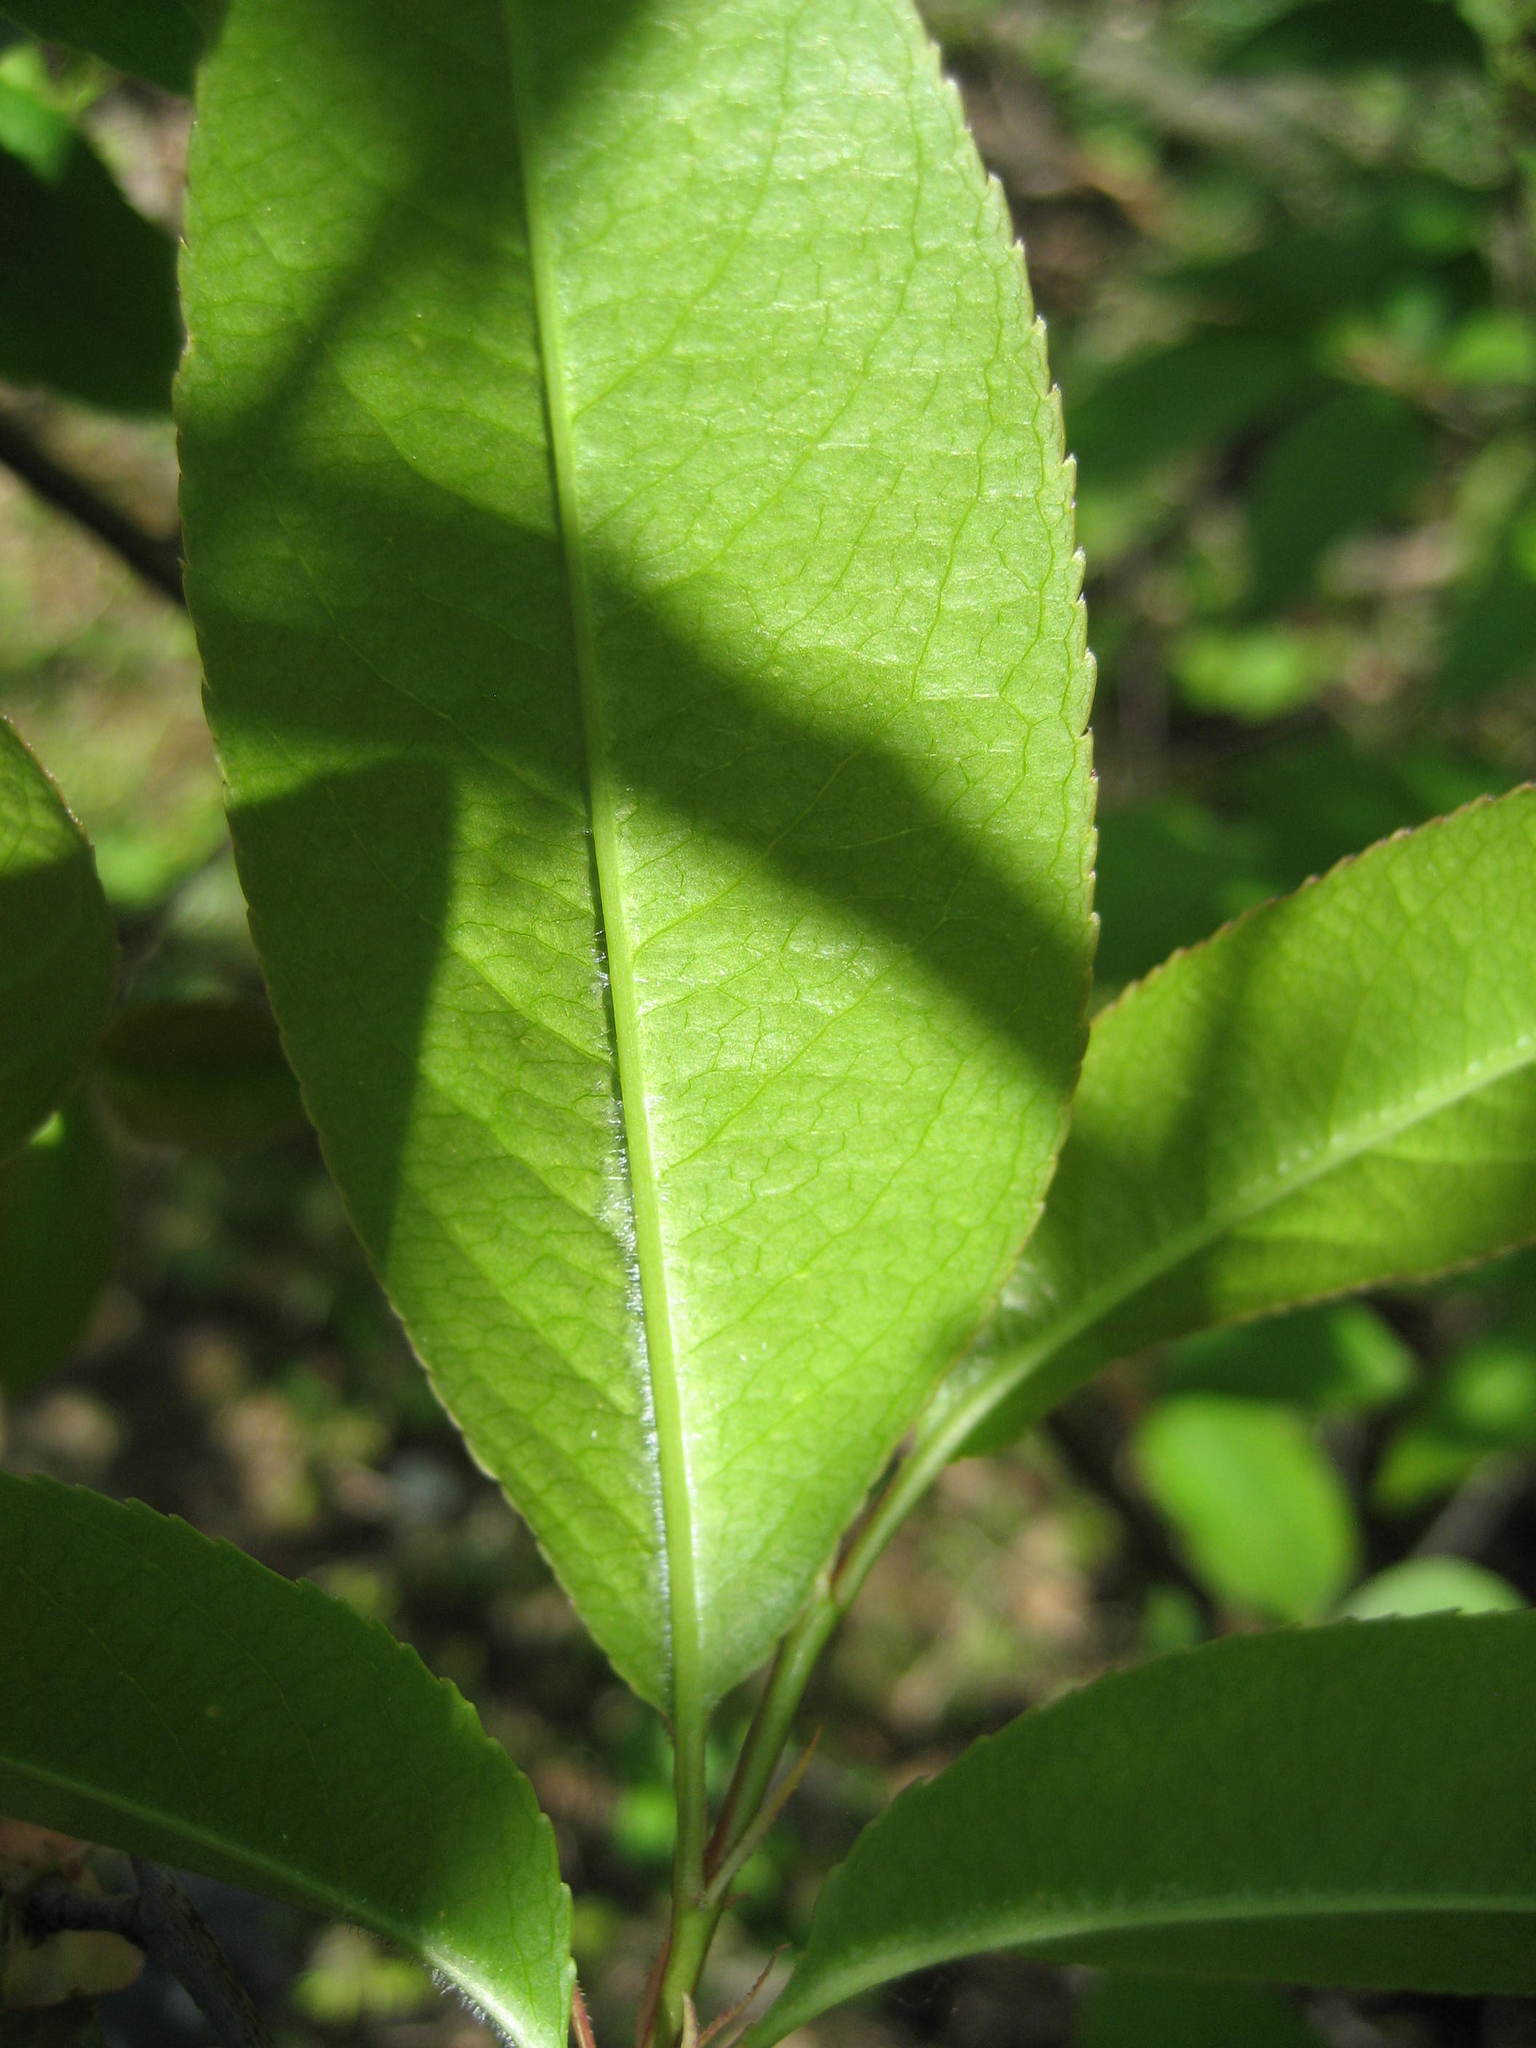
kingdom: Plantae
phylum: Tracheophyta
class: Magnoliopsida
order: Rosales
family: Rosaceae
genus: Prunus
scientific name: Prunus serotina
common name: Black cherry
